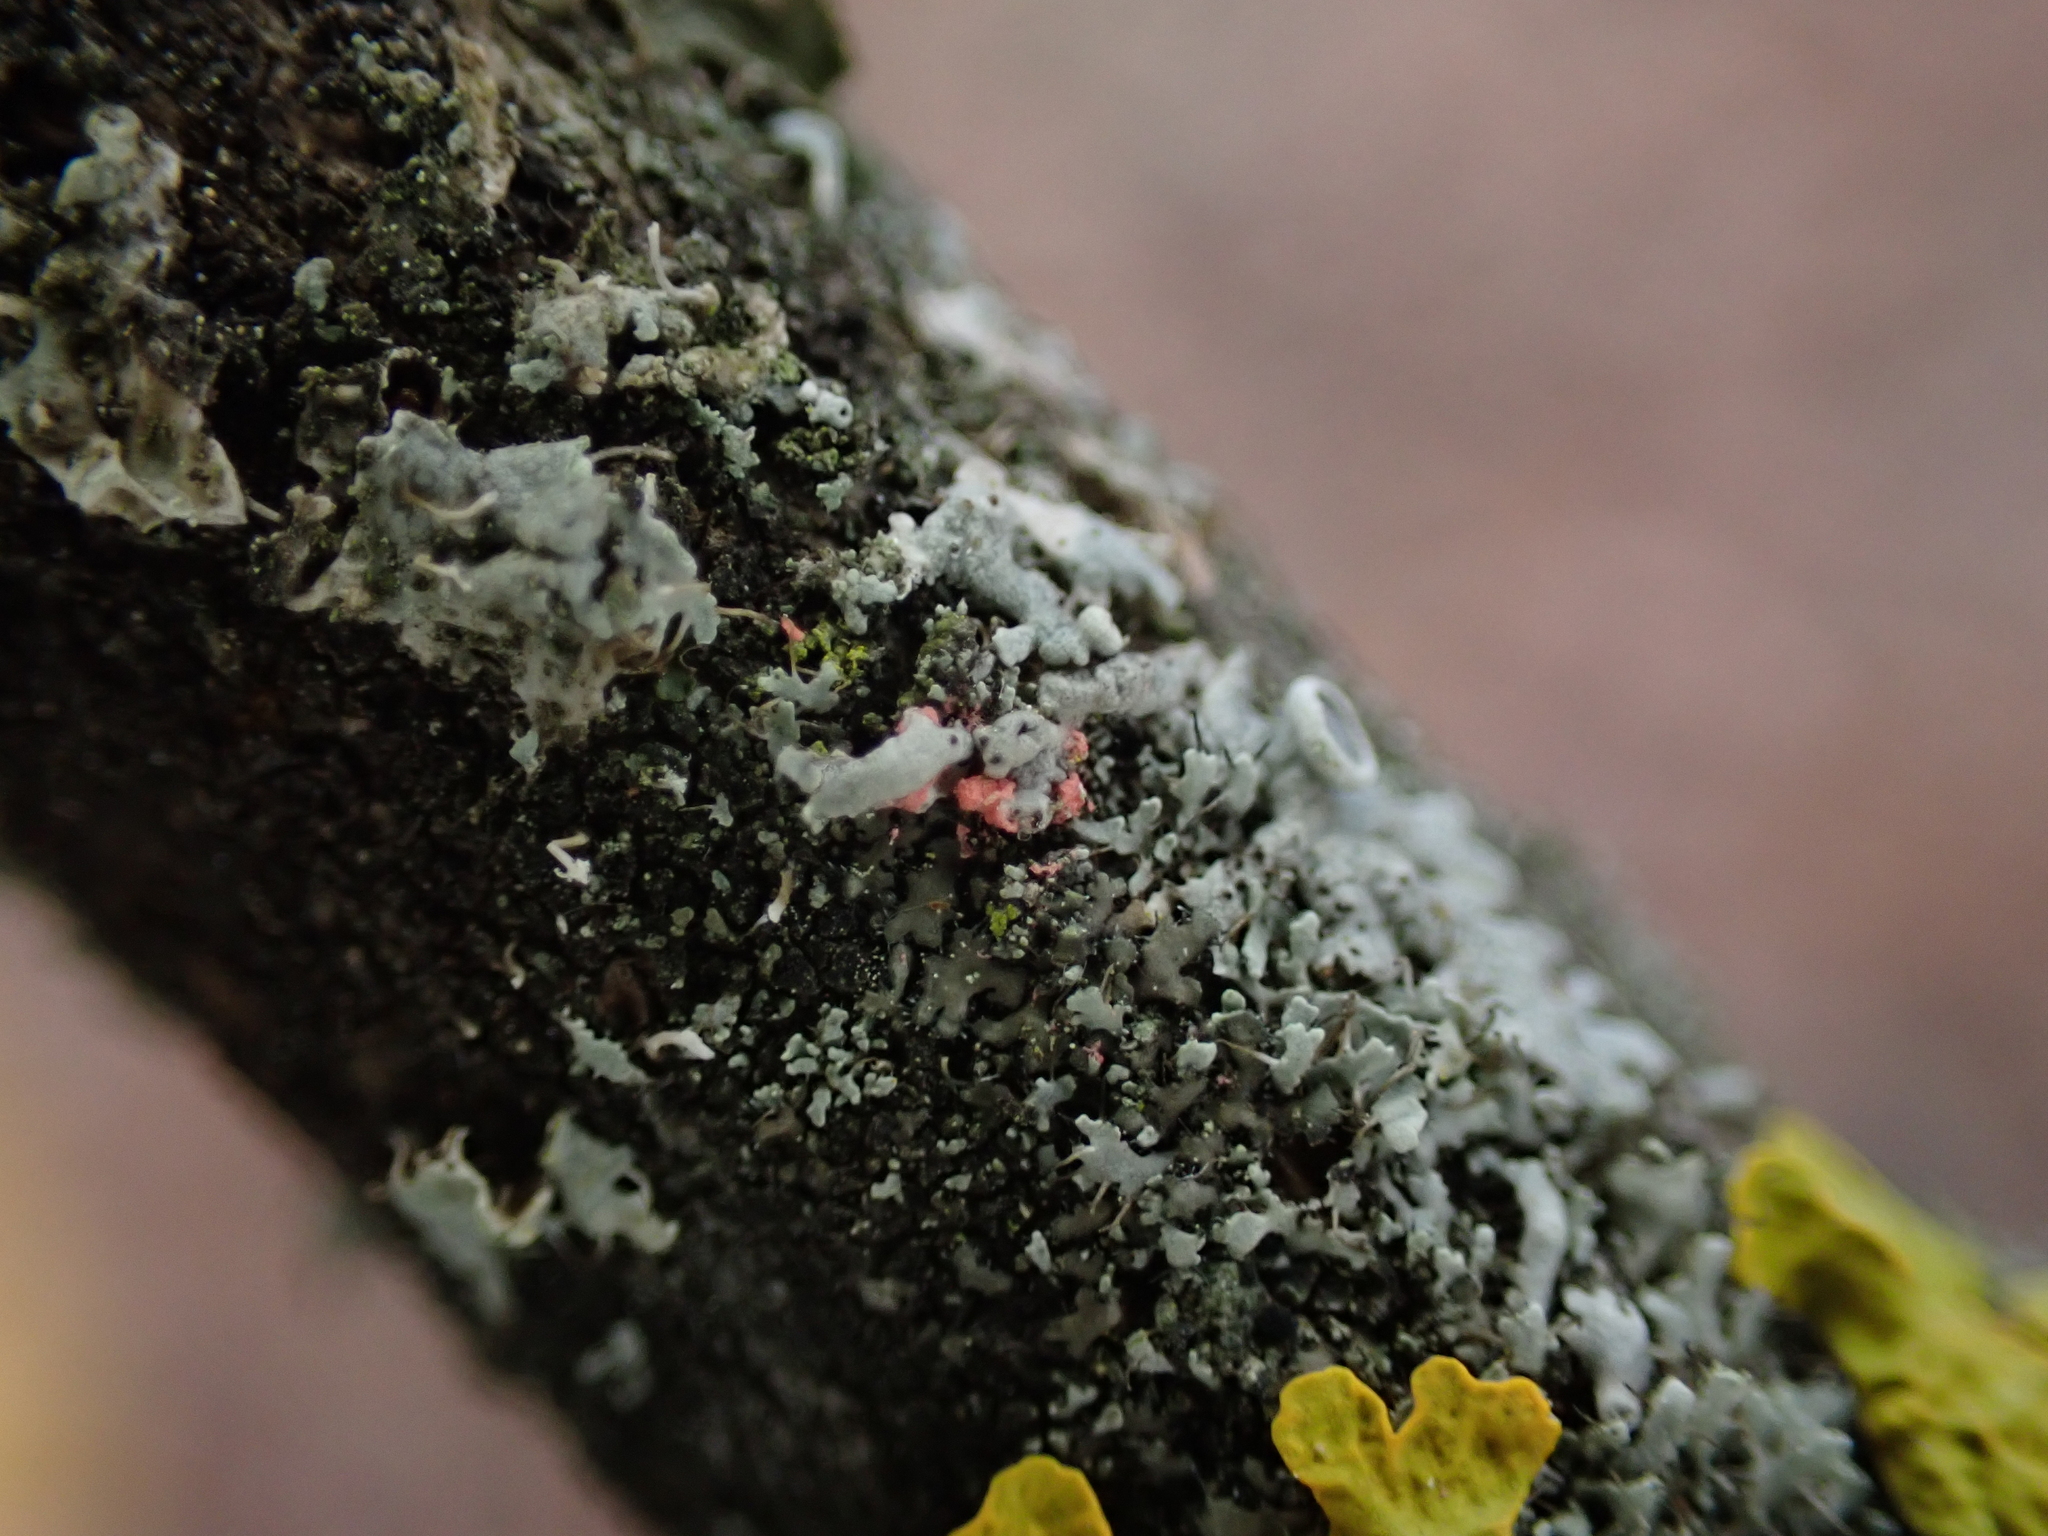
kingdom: Fungi
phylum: Ascomycota
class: Sordariomycetes
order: Hypocreales
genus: Illosporiopsis
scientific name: Illosporiopsis christiansenii
